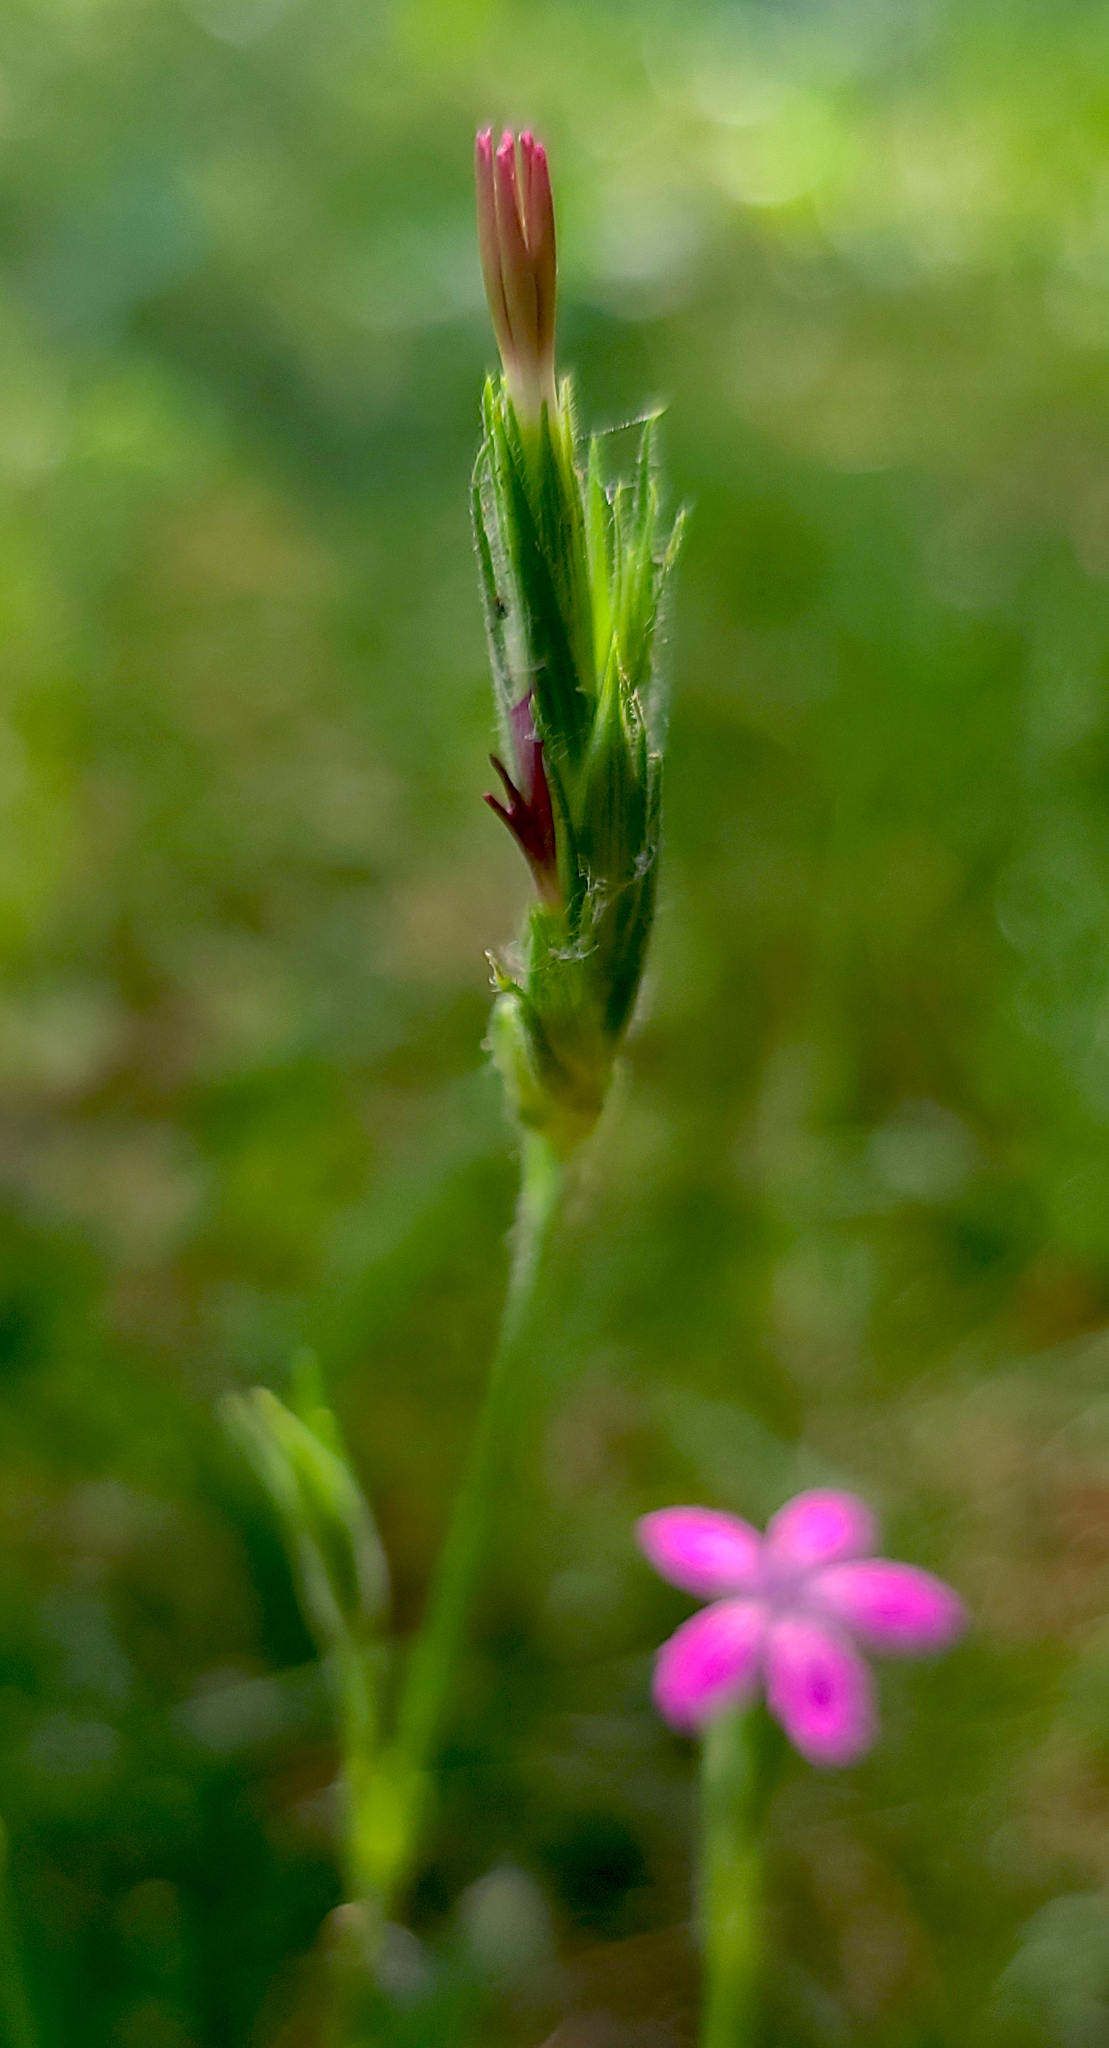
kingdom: Plantae
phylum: Tracheophyta
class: Magnoliopsida
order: Caryophyllales
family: Caryophyllaceae
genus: Dianthus
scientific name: Dianthus armeria
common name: Deptford pink
